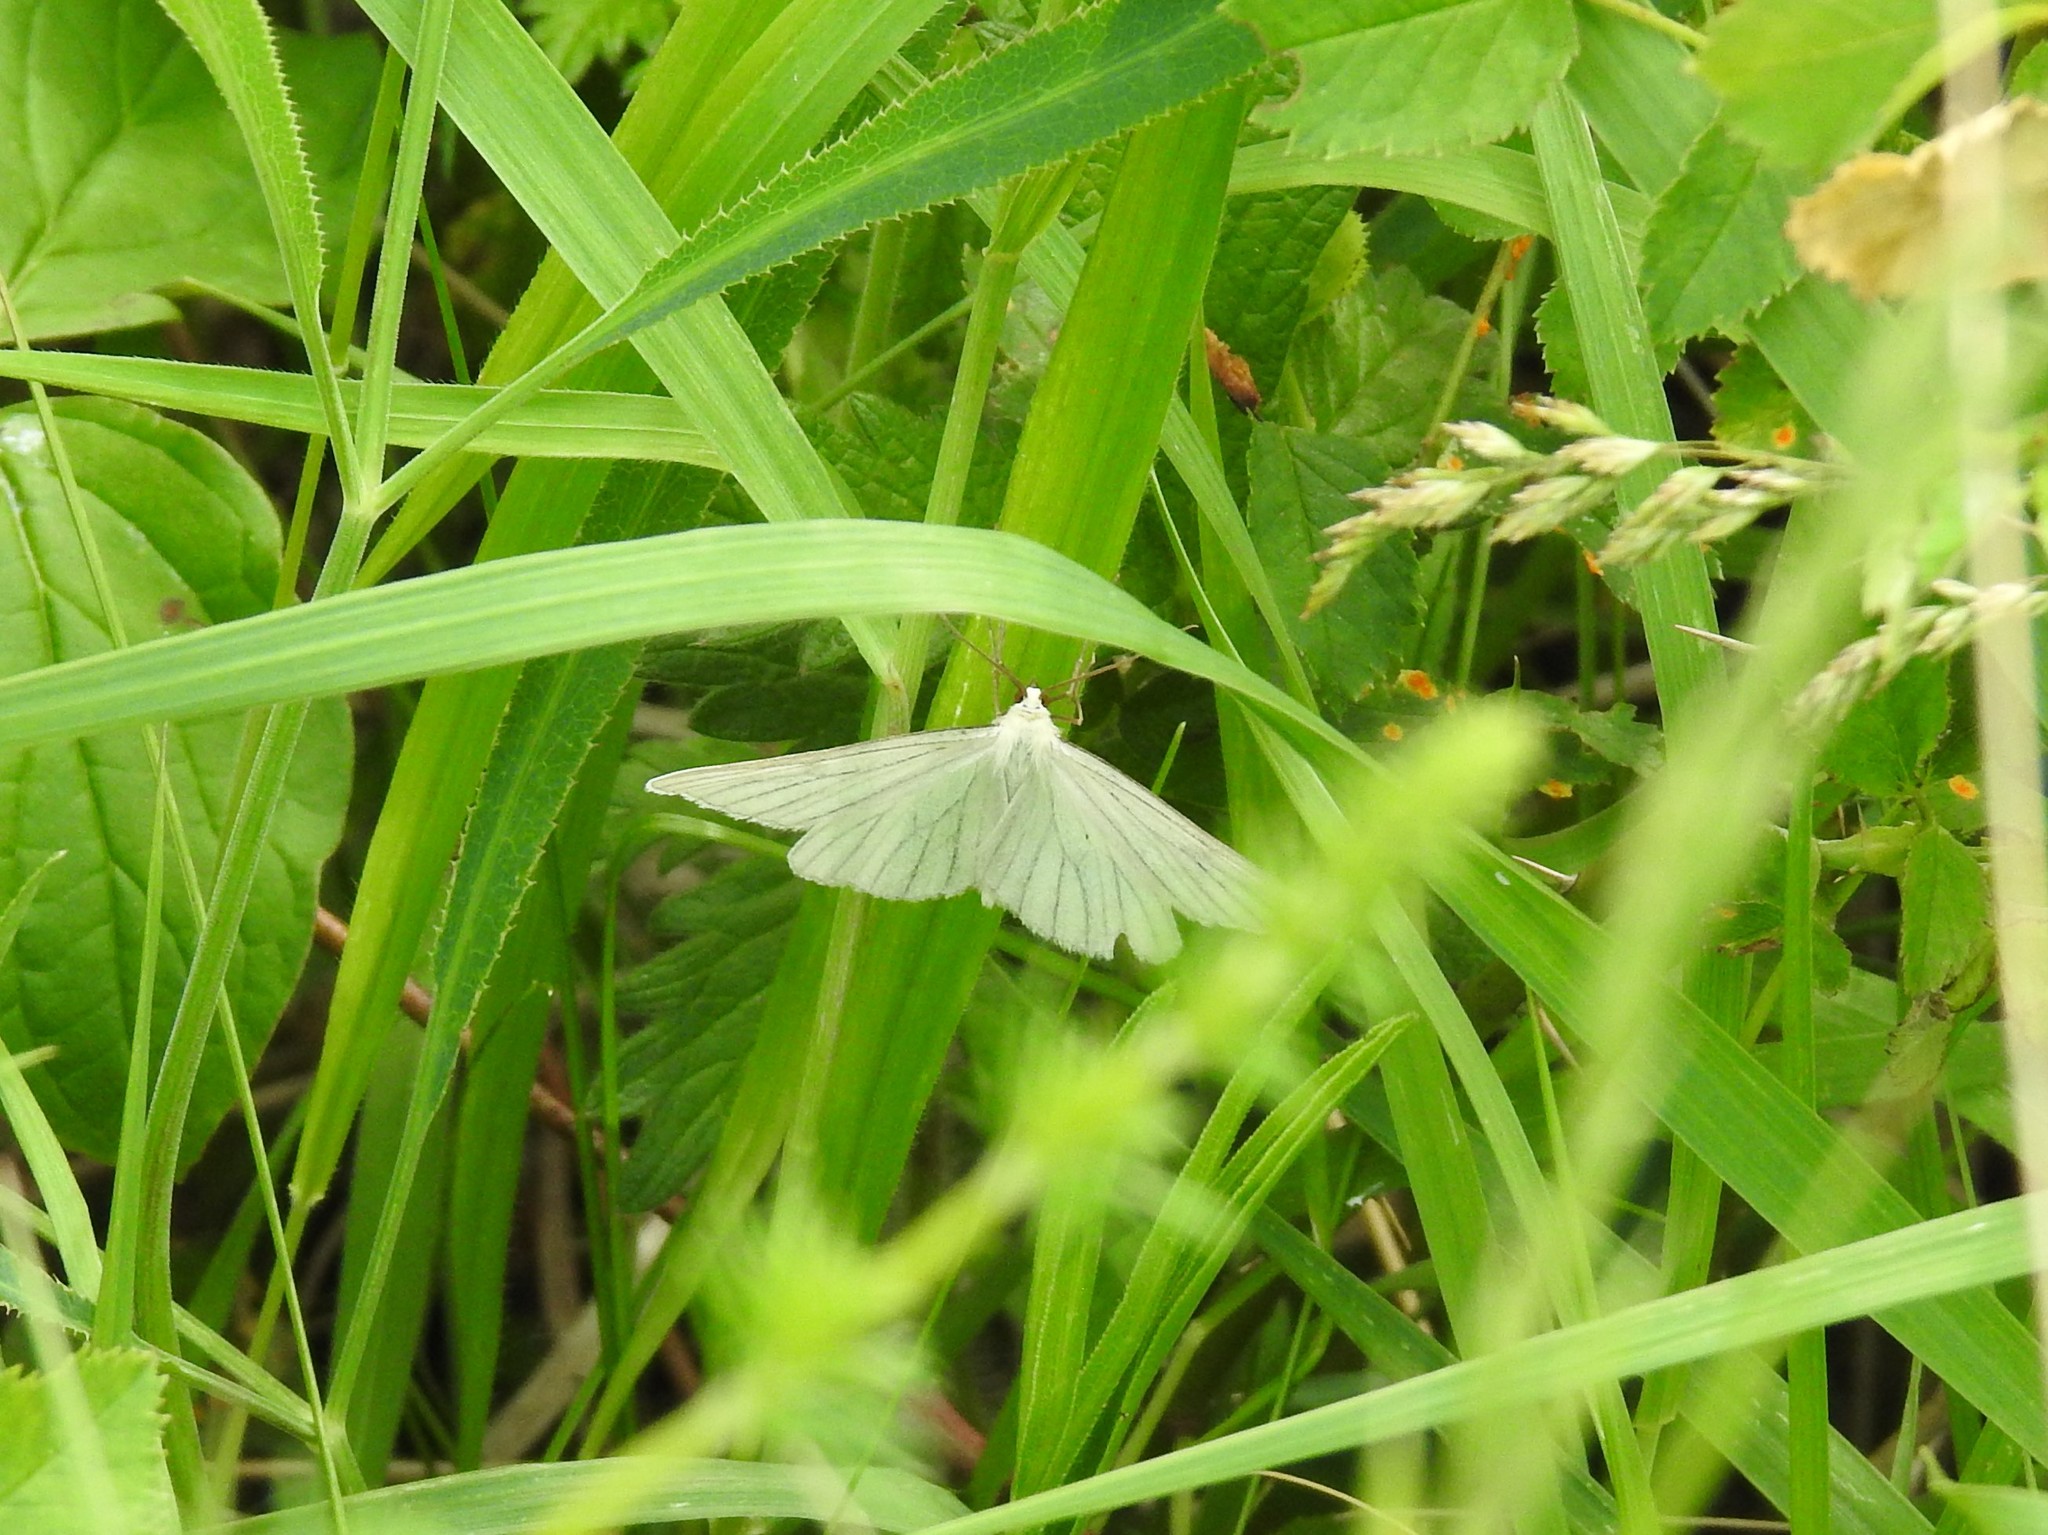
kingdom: Animalia
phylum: Arthropoda
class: Insecta
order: Lepidoptera
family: Geometridae
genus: Siona
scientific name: Siona lineata
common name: Black-veined moth
